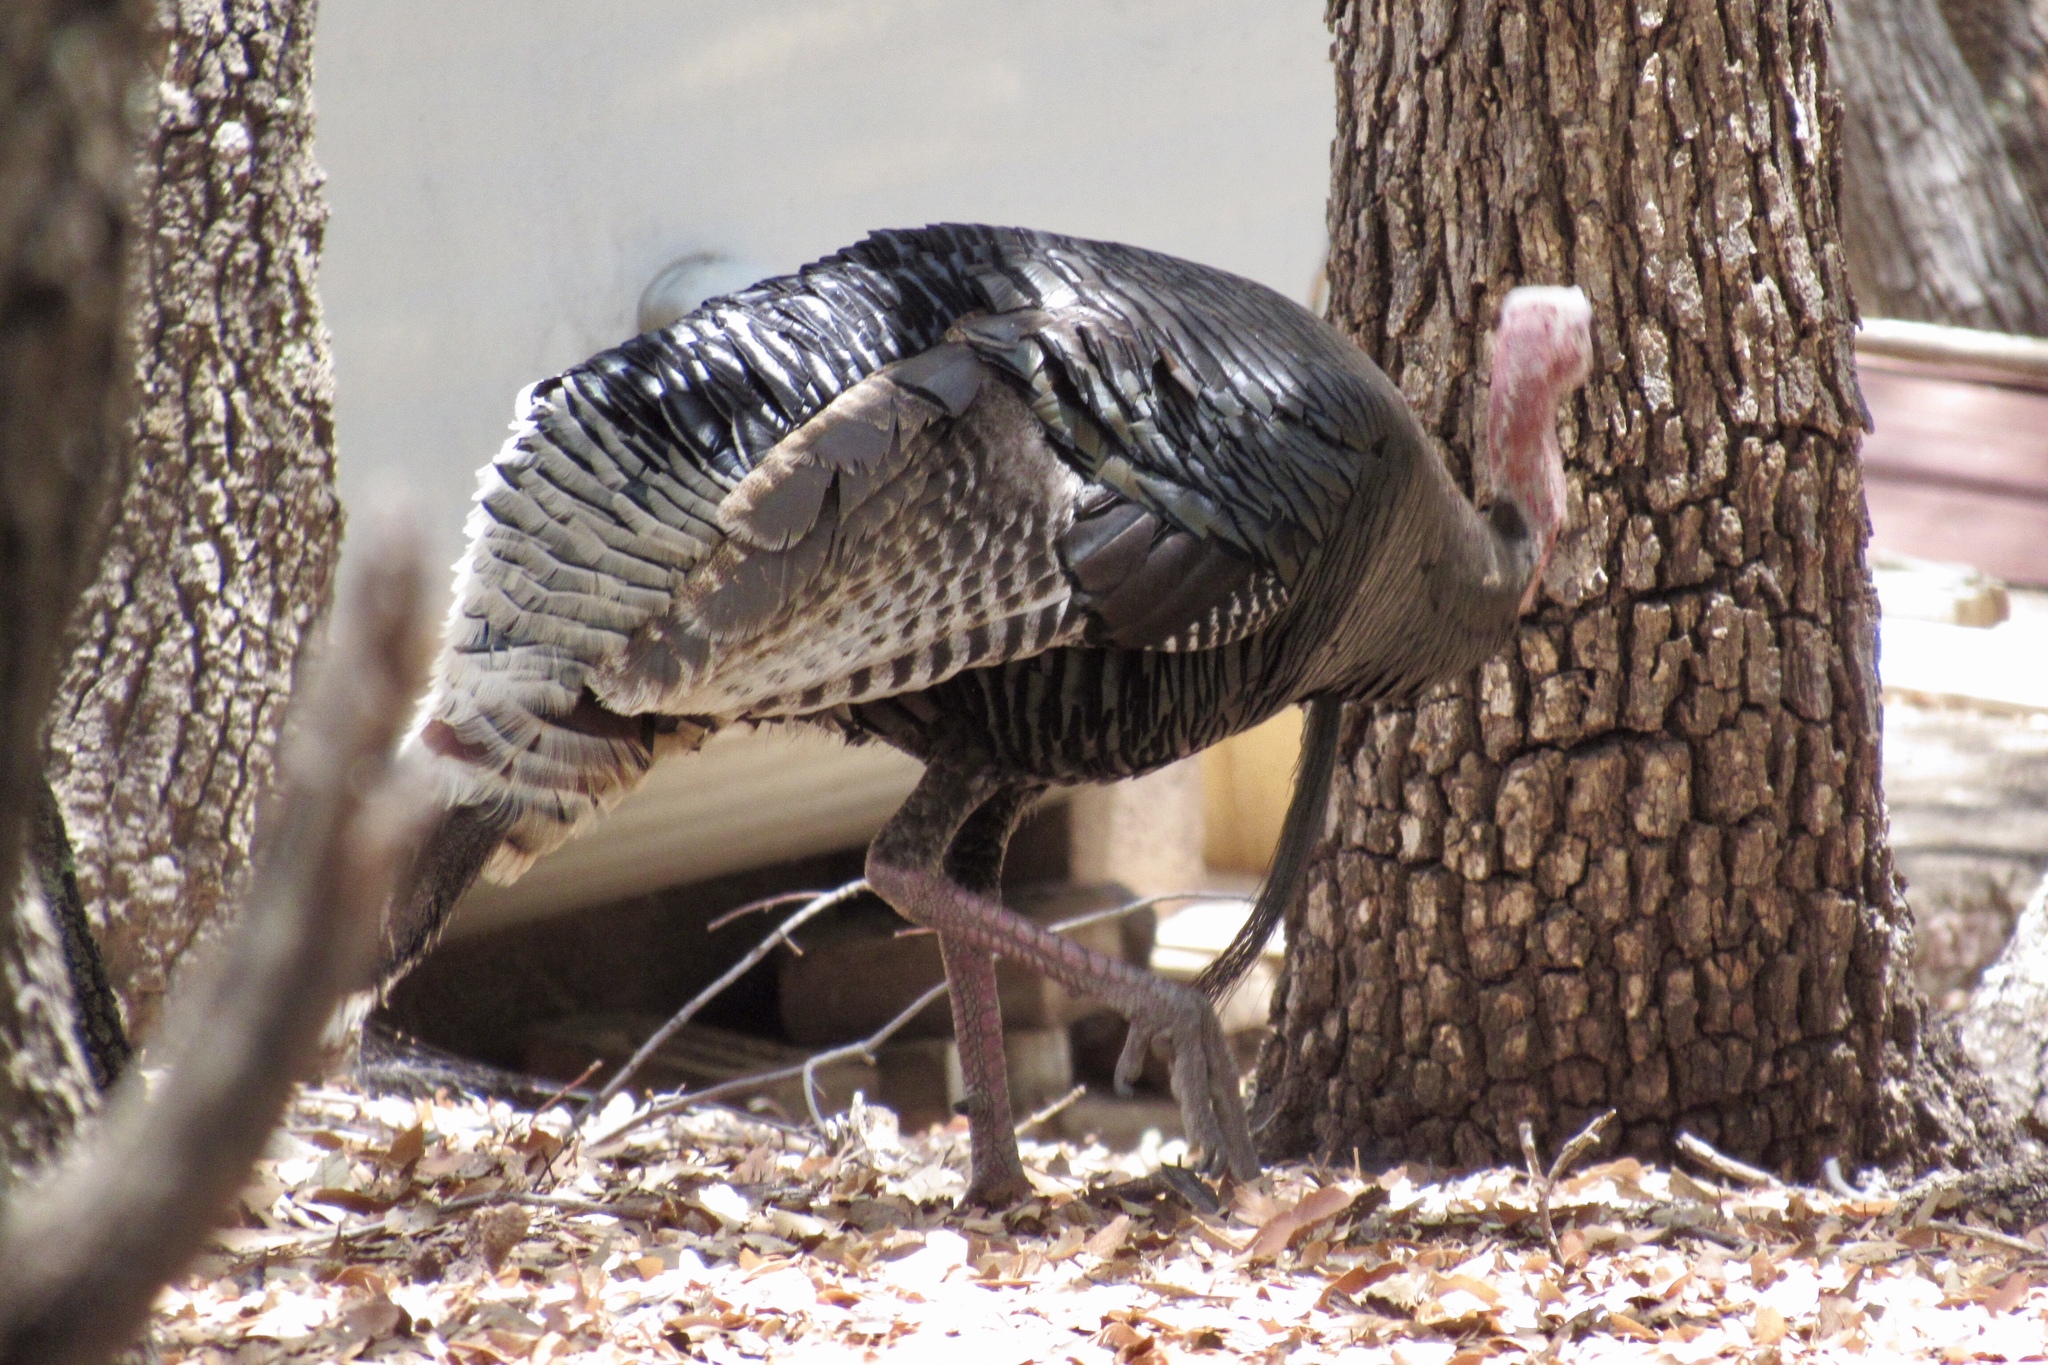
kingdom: Animalia
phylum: Chordata
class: Aves
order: Galliformes
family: Phasianidae
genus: Meleagris
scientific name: Meleagris gallopavo
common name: Wild turkey
